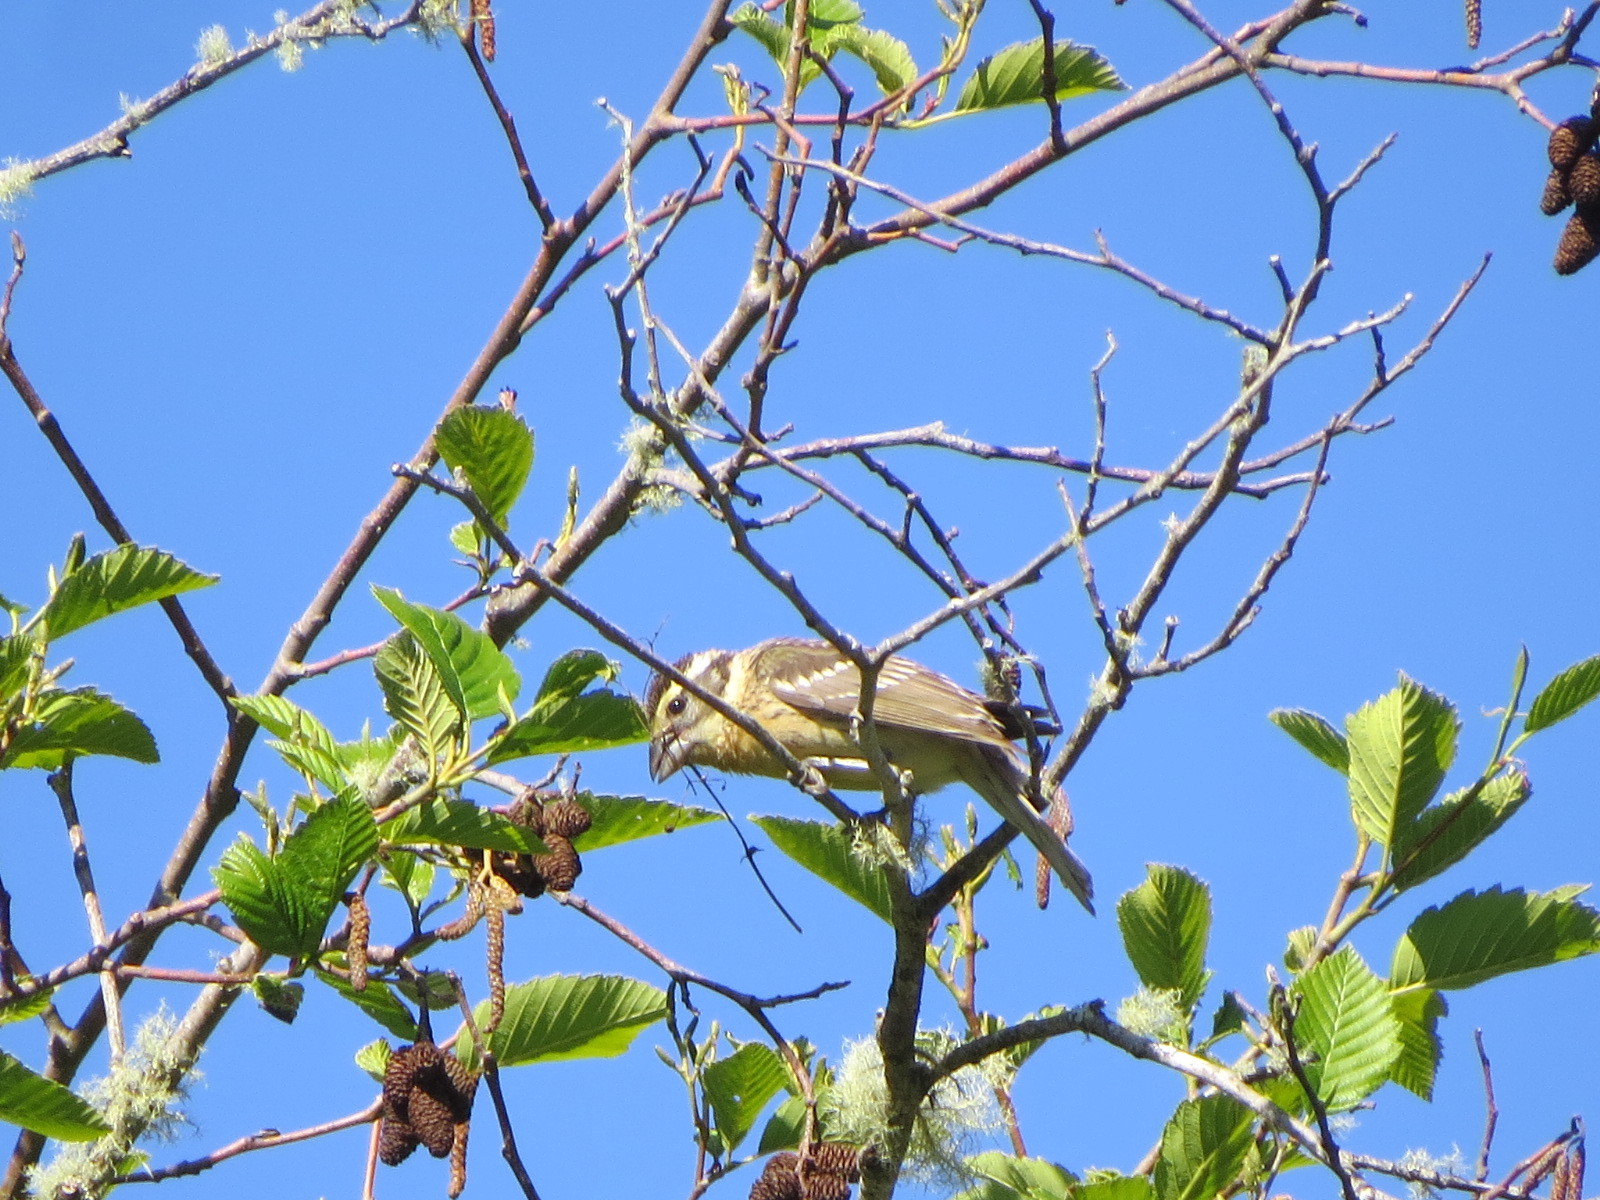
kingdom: Animalia
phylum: Chordata
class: Aves
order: Passeriformes
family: Cardinalidae
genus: Pheucticus
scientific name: Pheucticus melanocephalus
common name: Black-headed grosbeak
